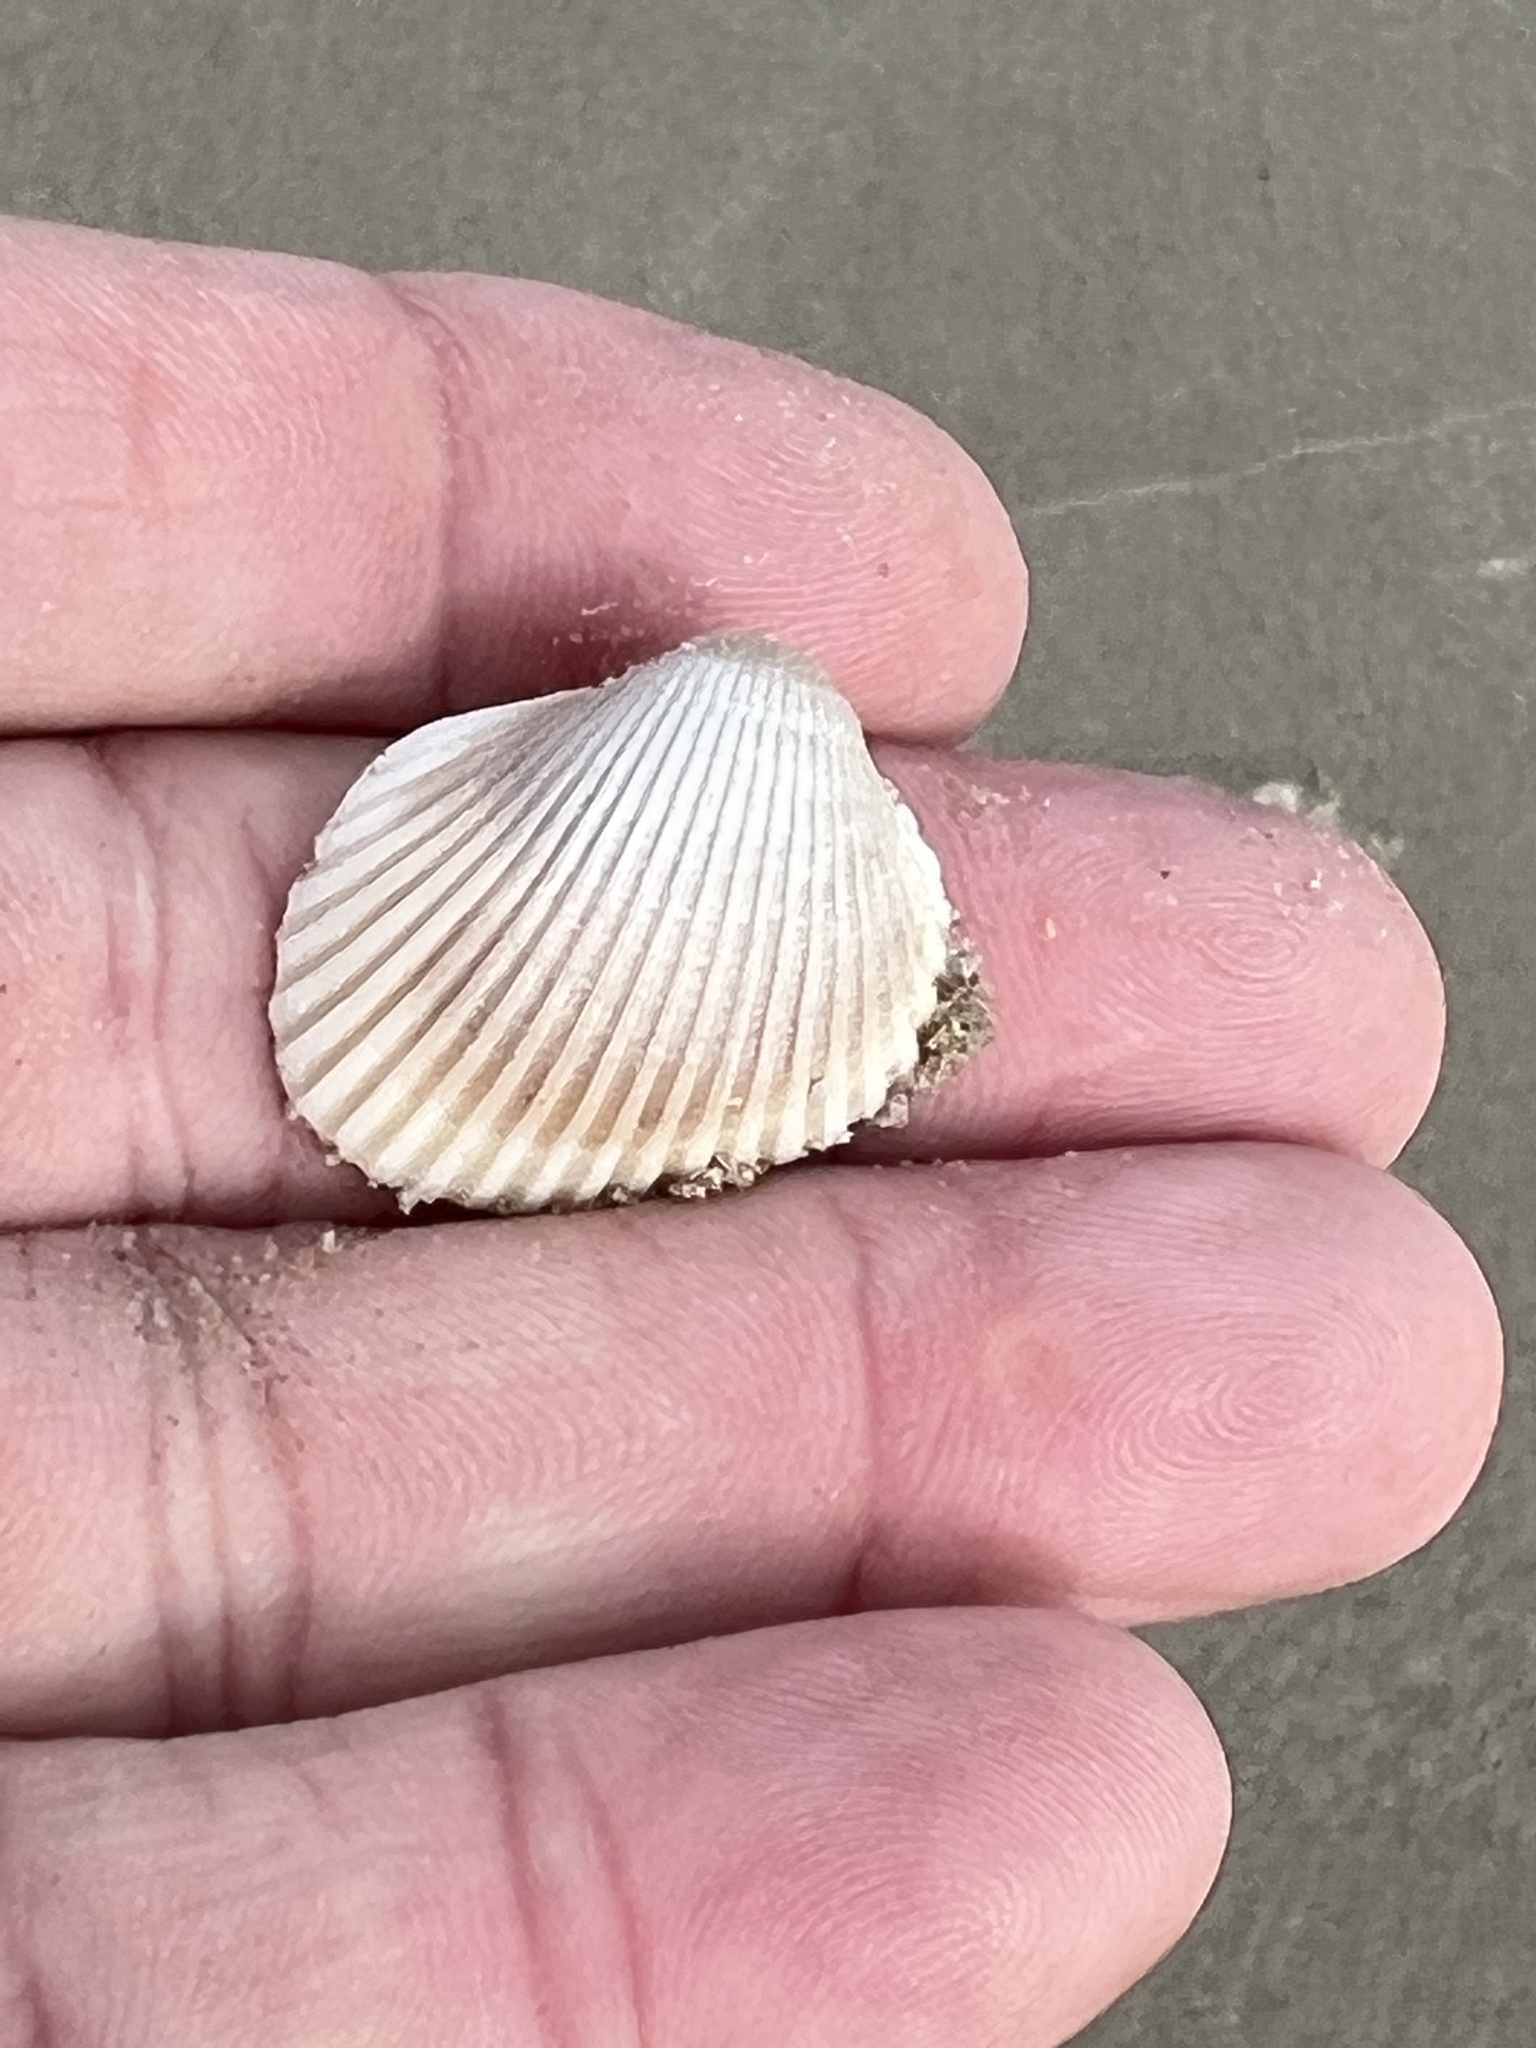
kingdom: Animalia
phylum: Mollusca
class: Bivalvia
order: Arcida
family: Arcidae
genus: Lunarca
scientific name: Lunarca ovalis
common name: Blood ark
